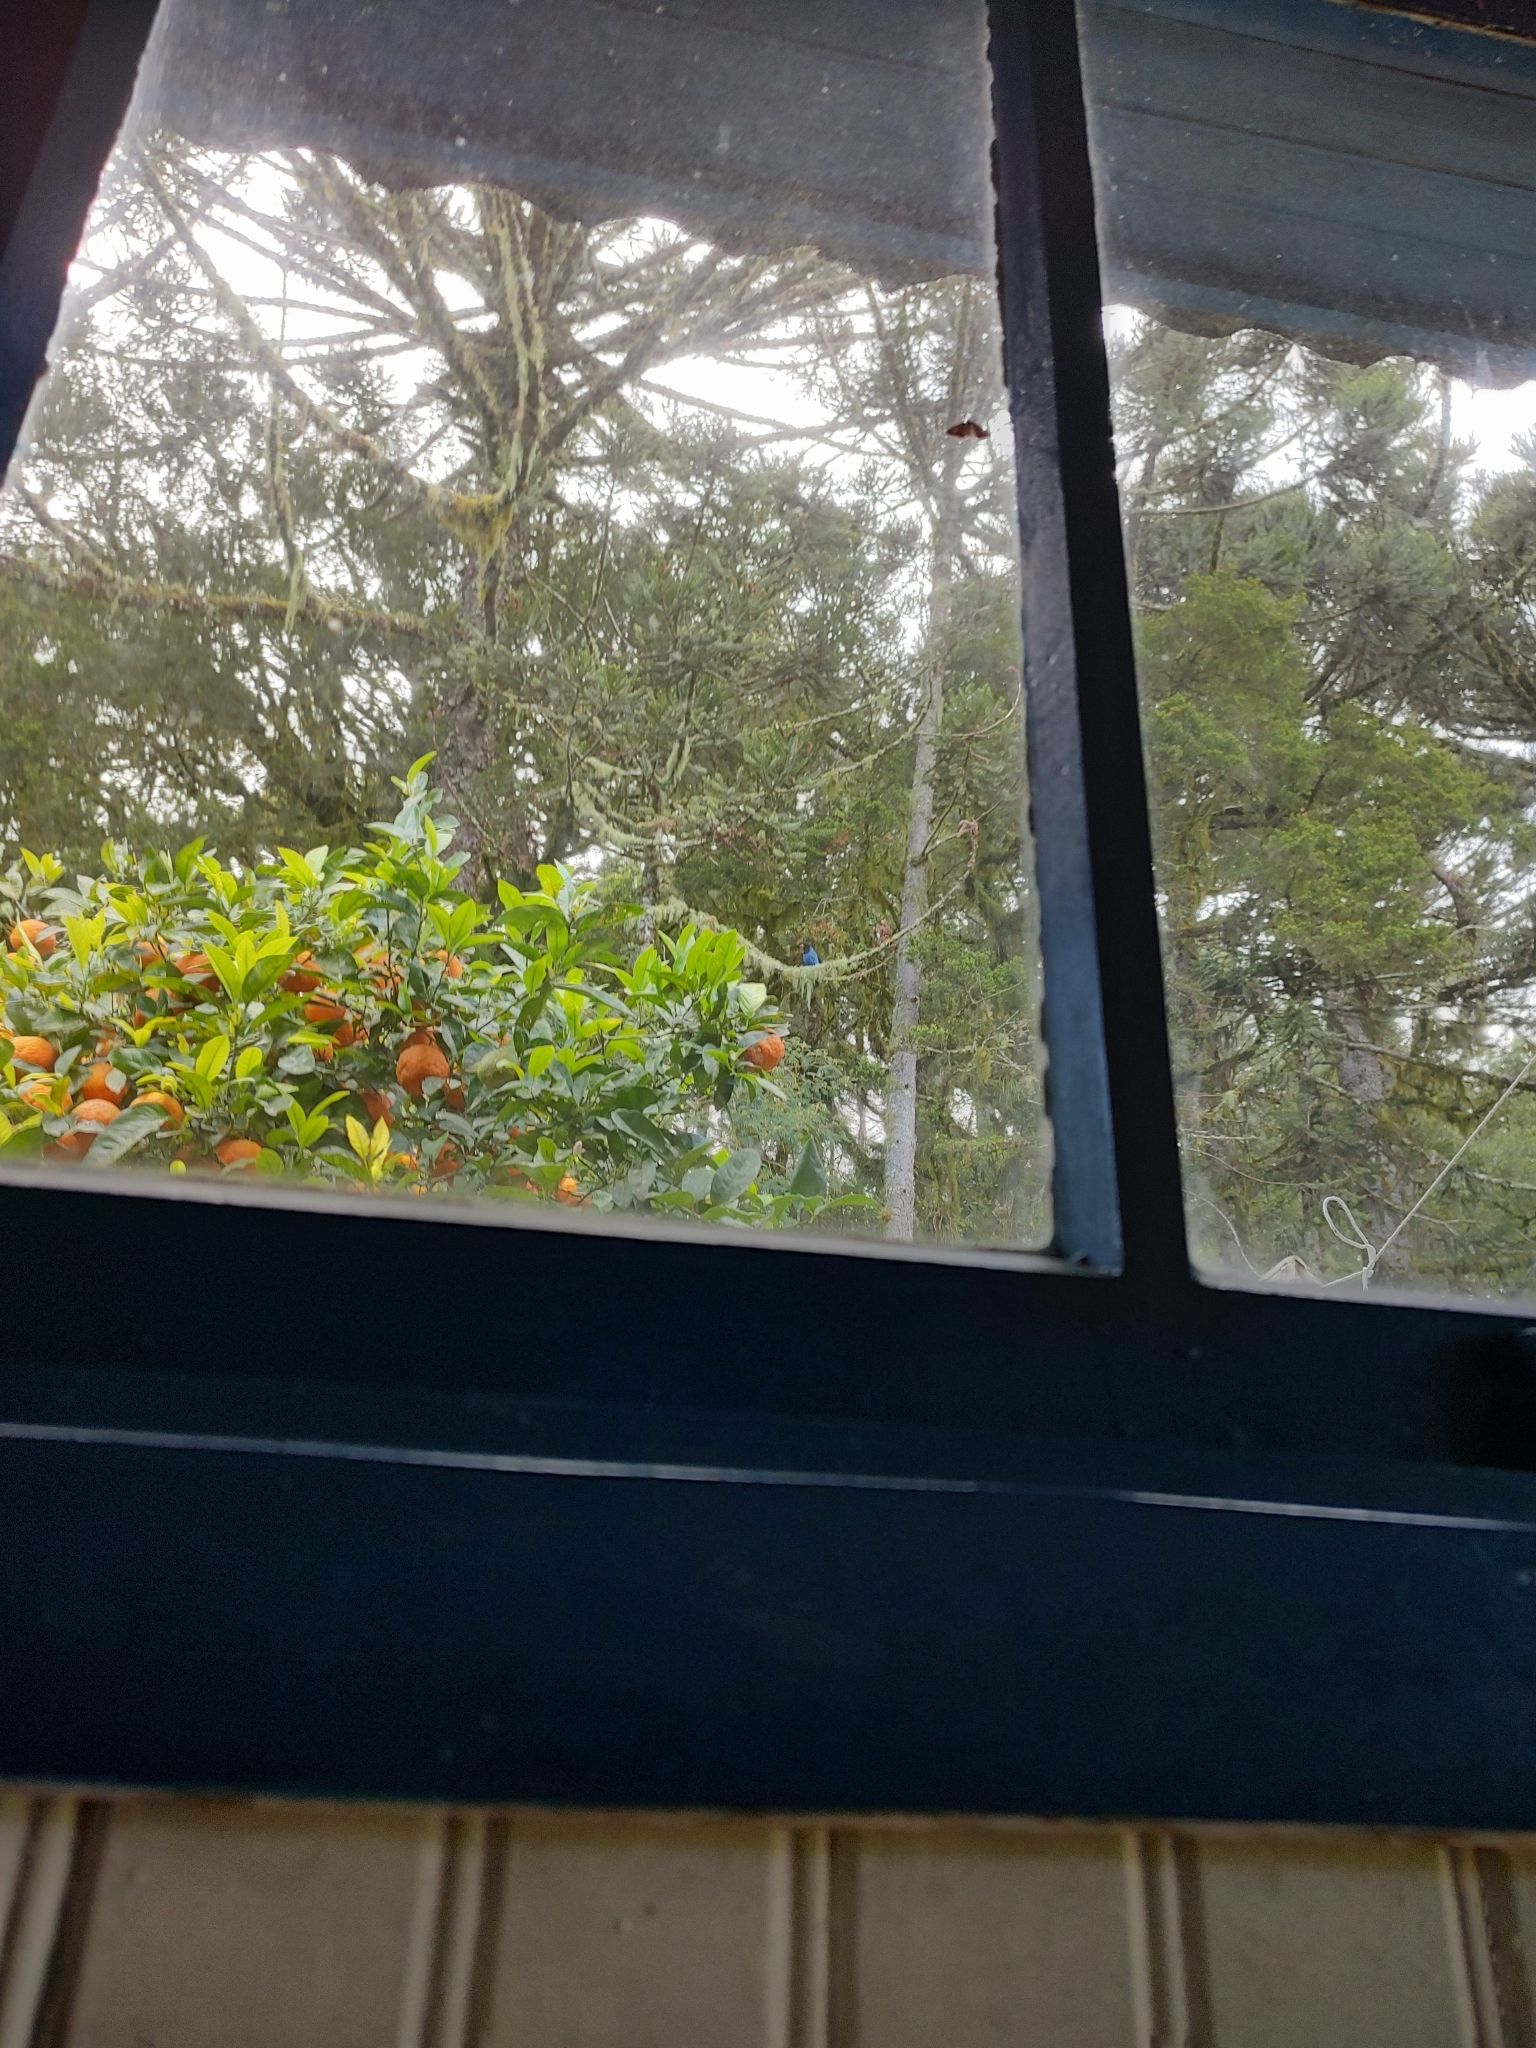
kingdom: Animalia
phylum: Chordata
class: Aves
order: Passeriformes
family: Corvidae
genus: Cyanocorax
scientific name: Cyanocorax caeruleus
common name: Azure jay
